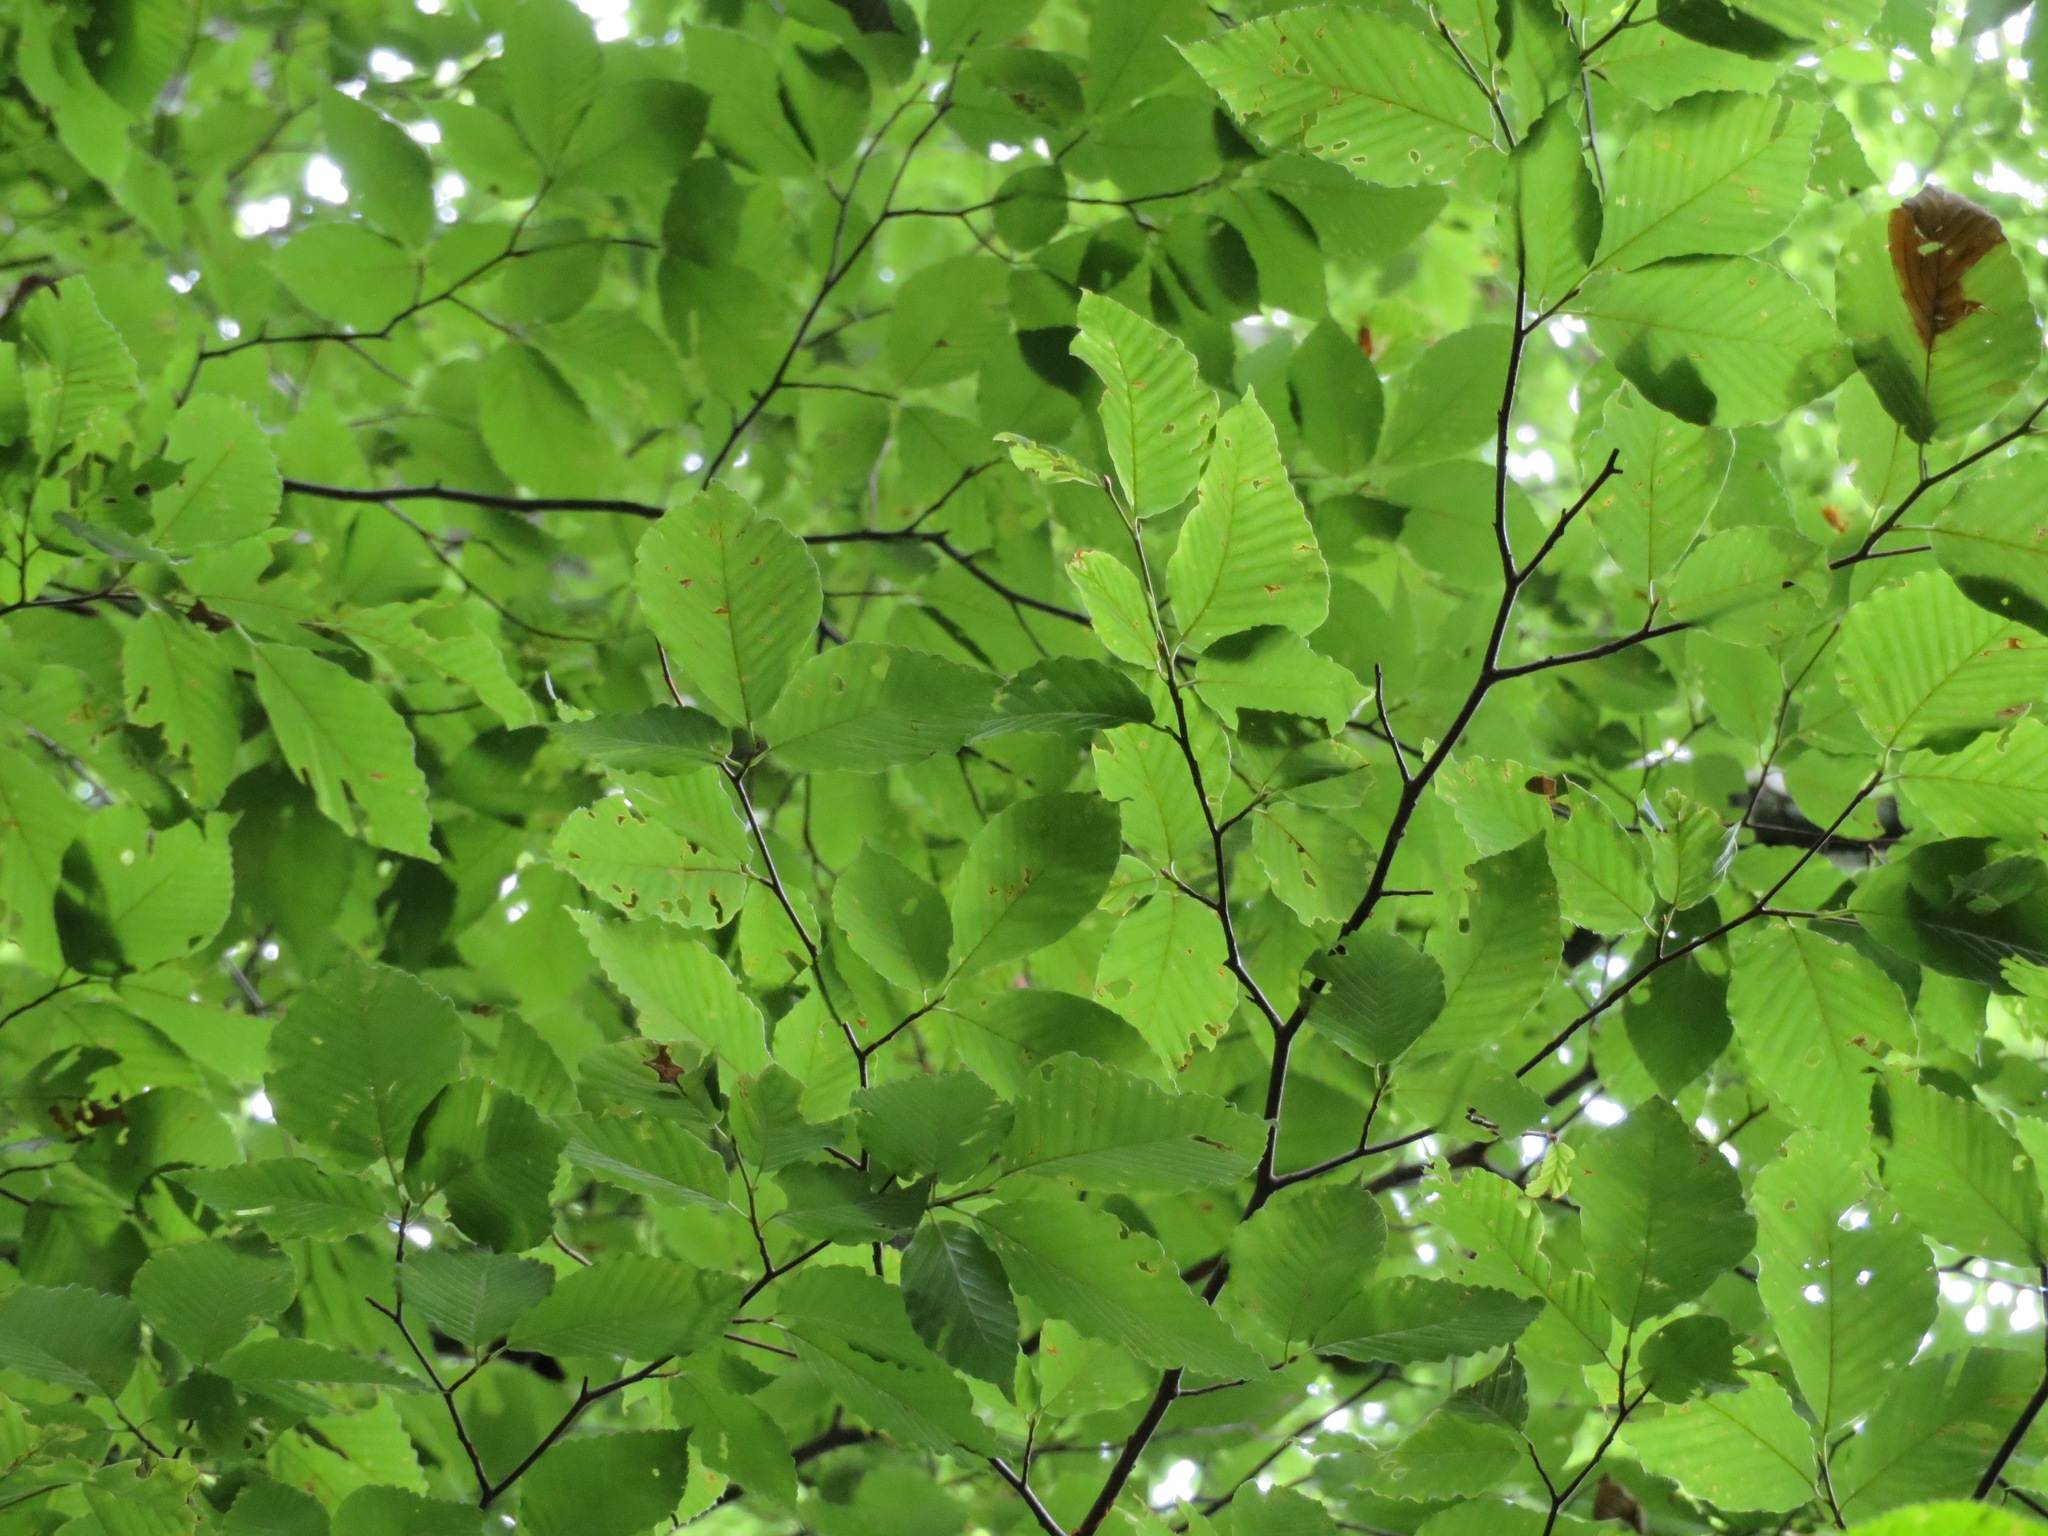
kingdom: Plantae
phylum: Tracheophyta
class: Magnoliopsida
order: Fagales
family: Fagaceae
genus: Fagus
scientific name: Fagus crenata
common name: Japanese beech
